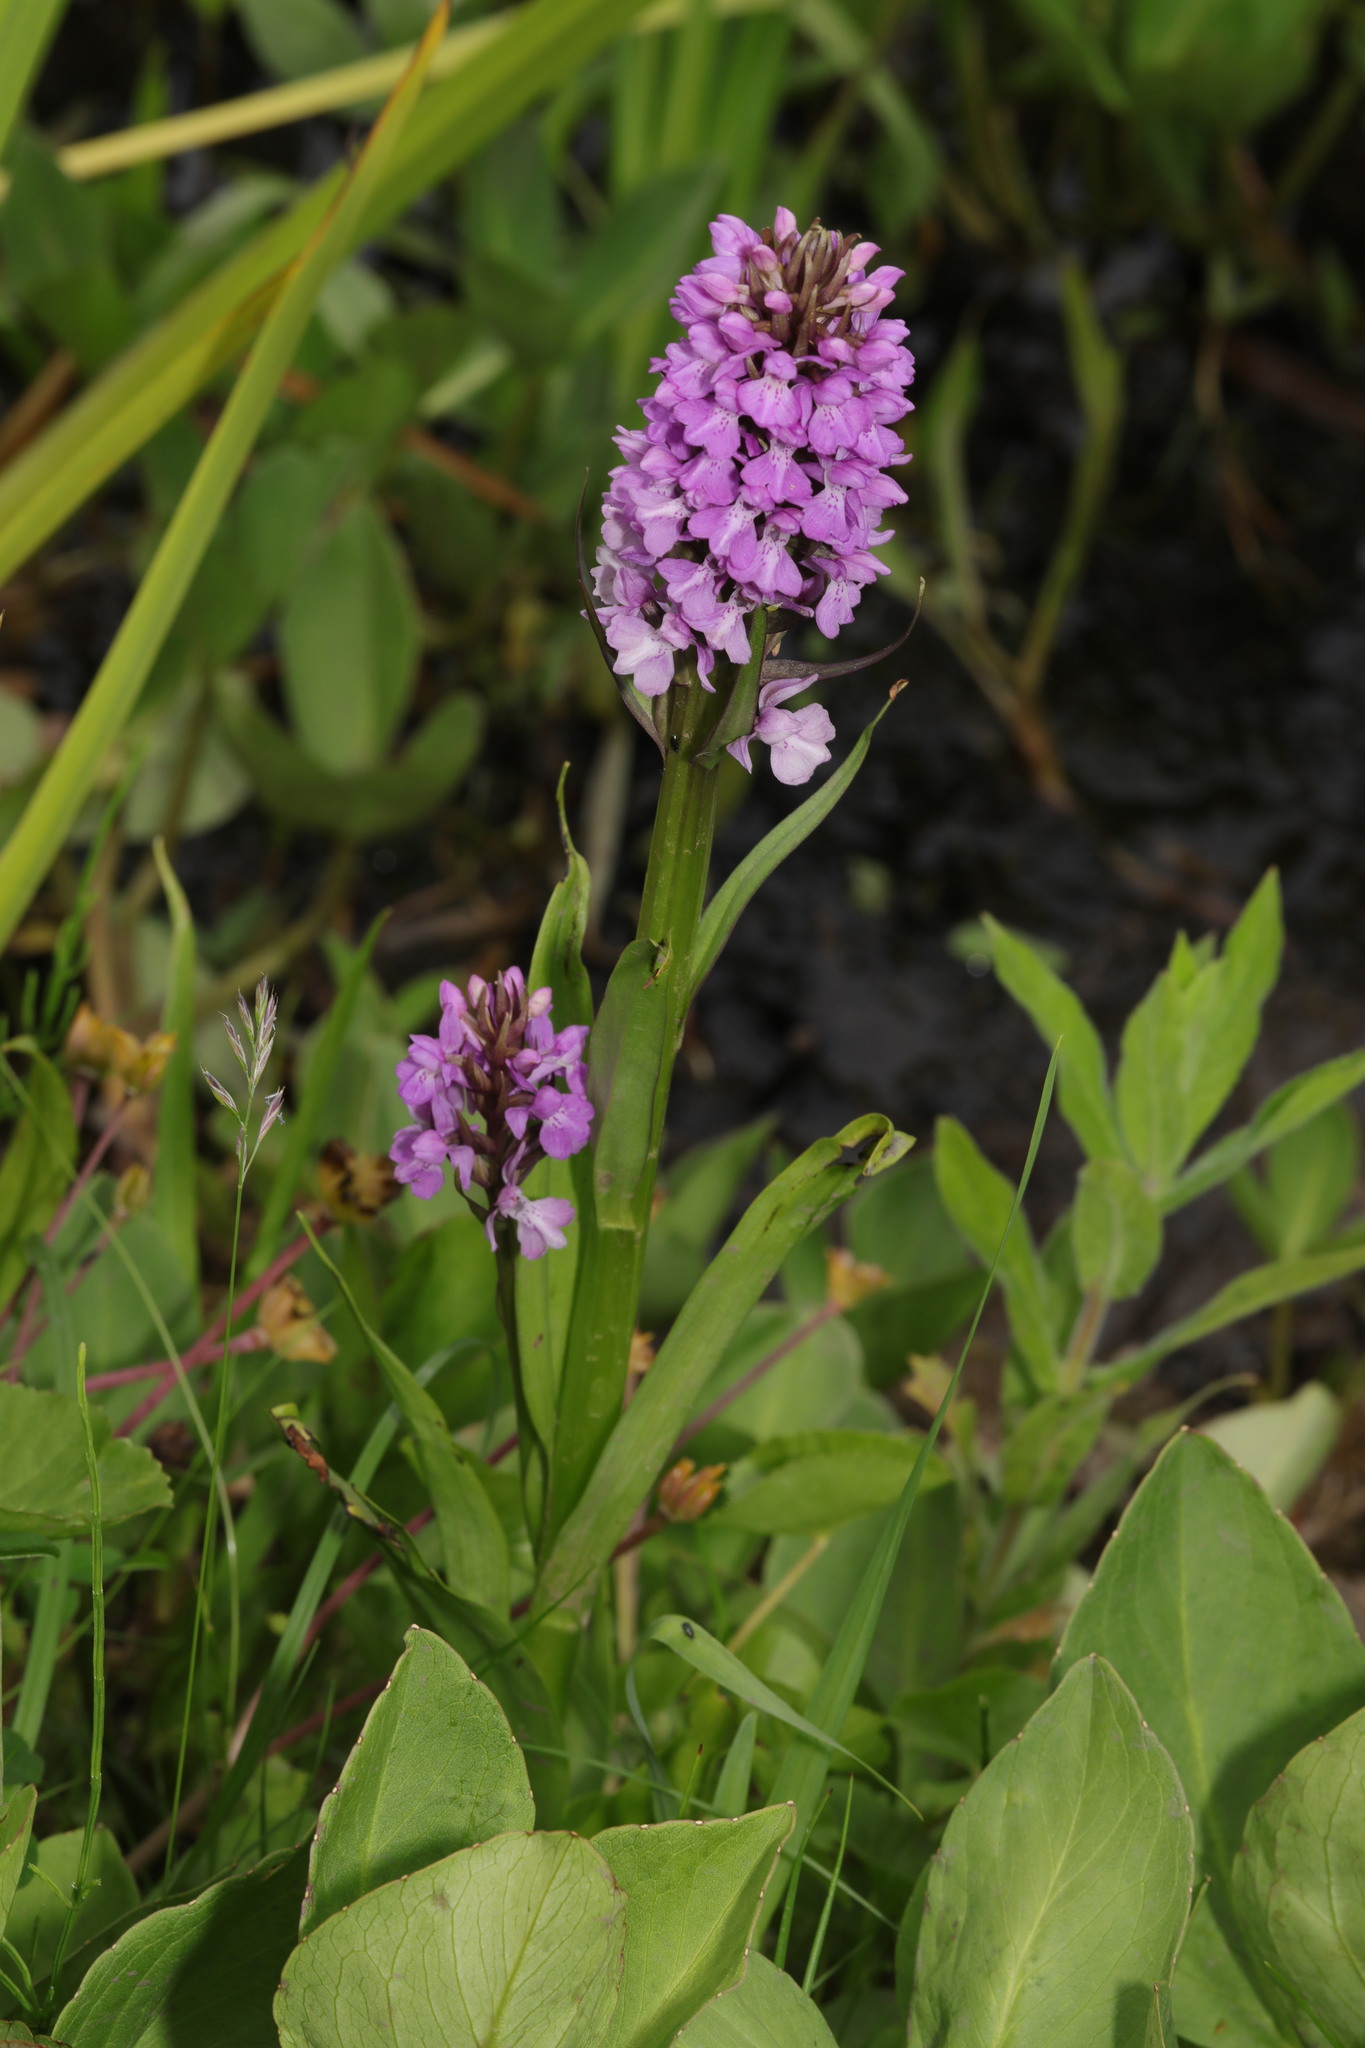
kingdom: Plantae
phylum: Tracheophyta
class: Liliopsida
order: Asparagales
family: Orchidaceae
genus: Dactylorhiza
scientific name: Dactylorhiza majalis
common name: Marsh orchid
